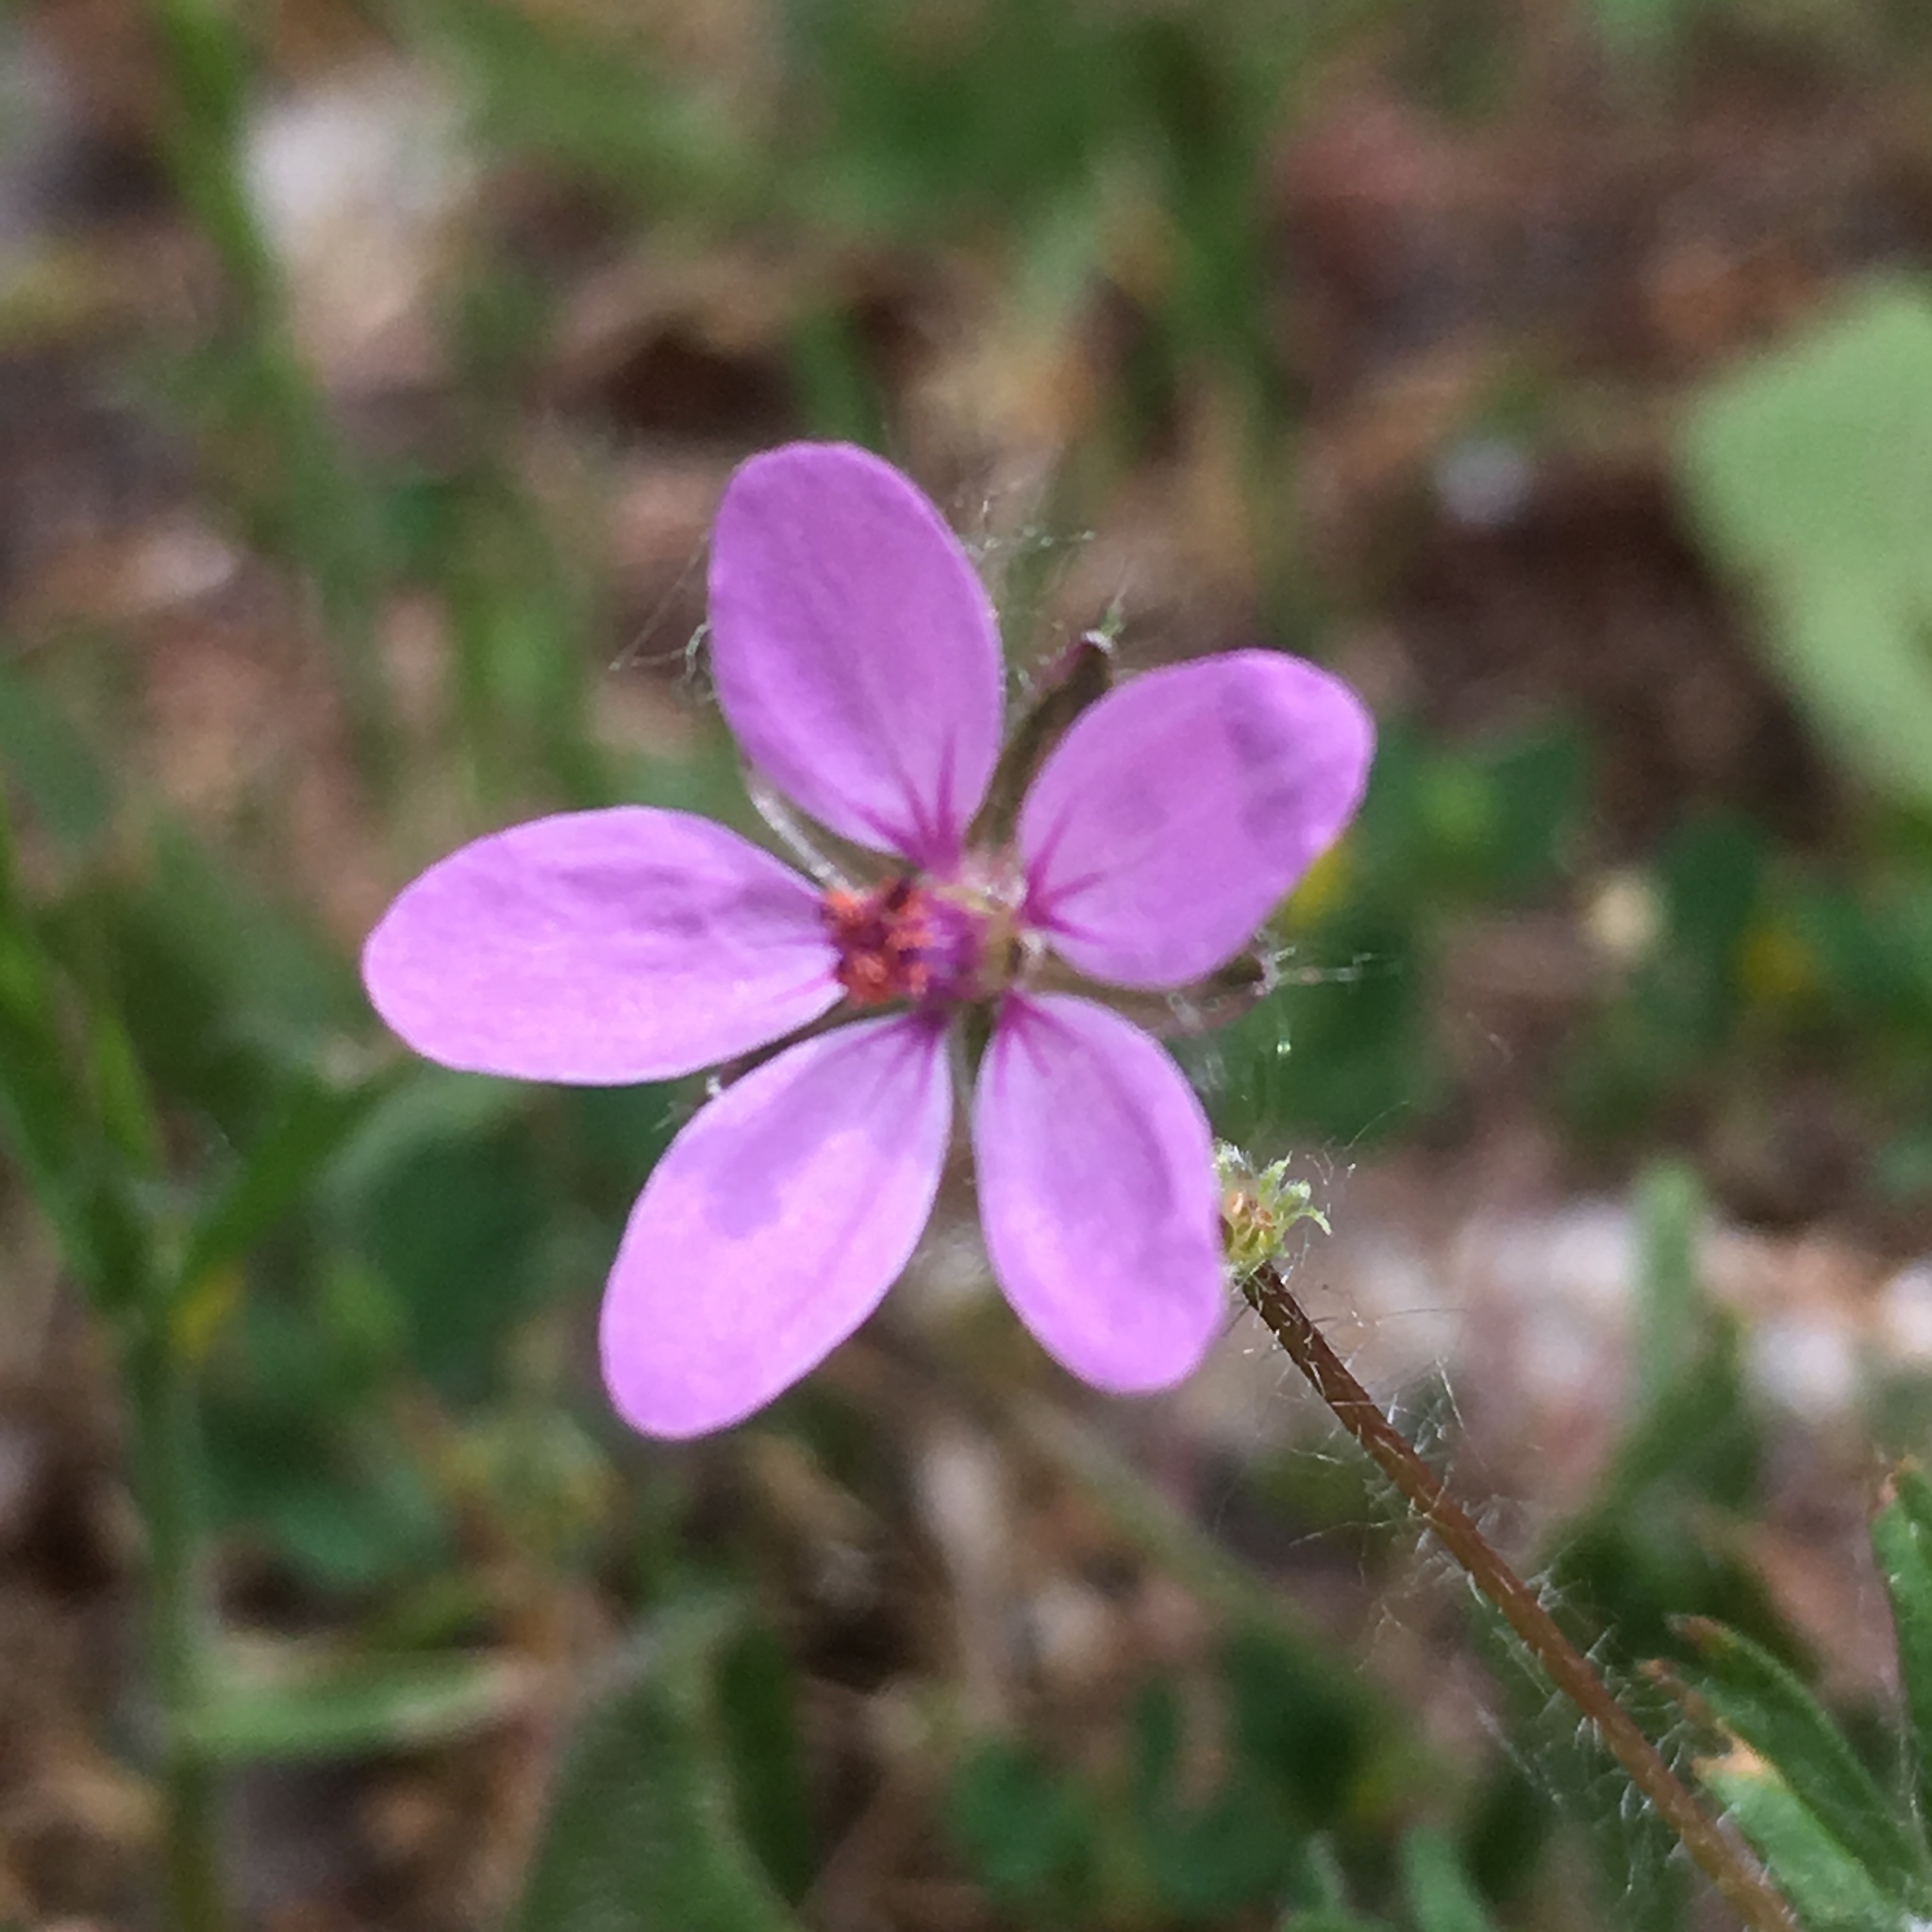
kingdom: Plantae
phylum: Tracheophyta
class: Magnoliopsida
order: Geraniales
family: Geraniaceae
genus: Erodium
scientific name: Erodium cicutarium
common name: Common stork's-bill
